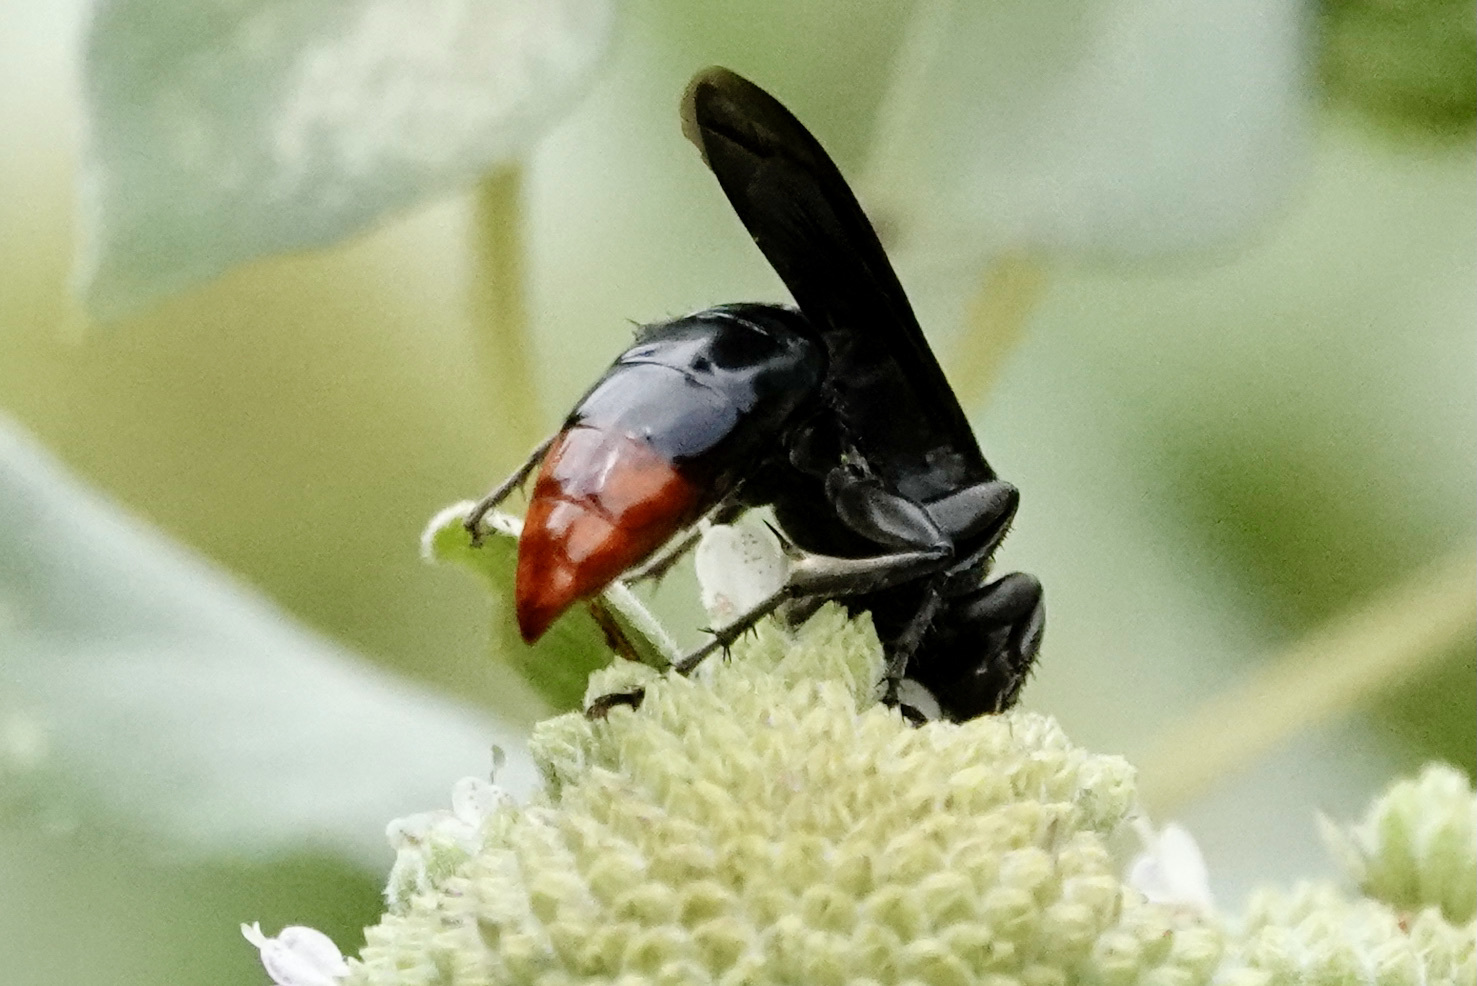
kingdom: Animalia
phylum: Arthropoda
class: Insecta
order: Hymenoptera
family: Crabronidae
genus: Larra
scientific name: Larra analis
